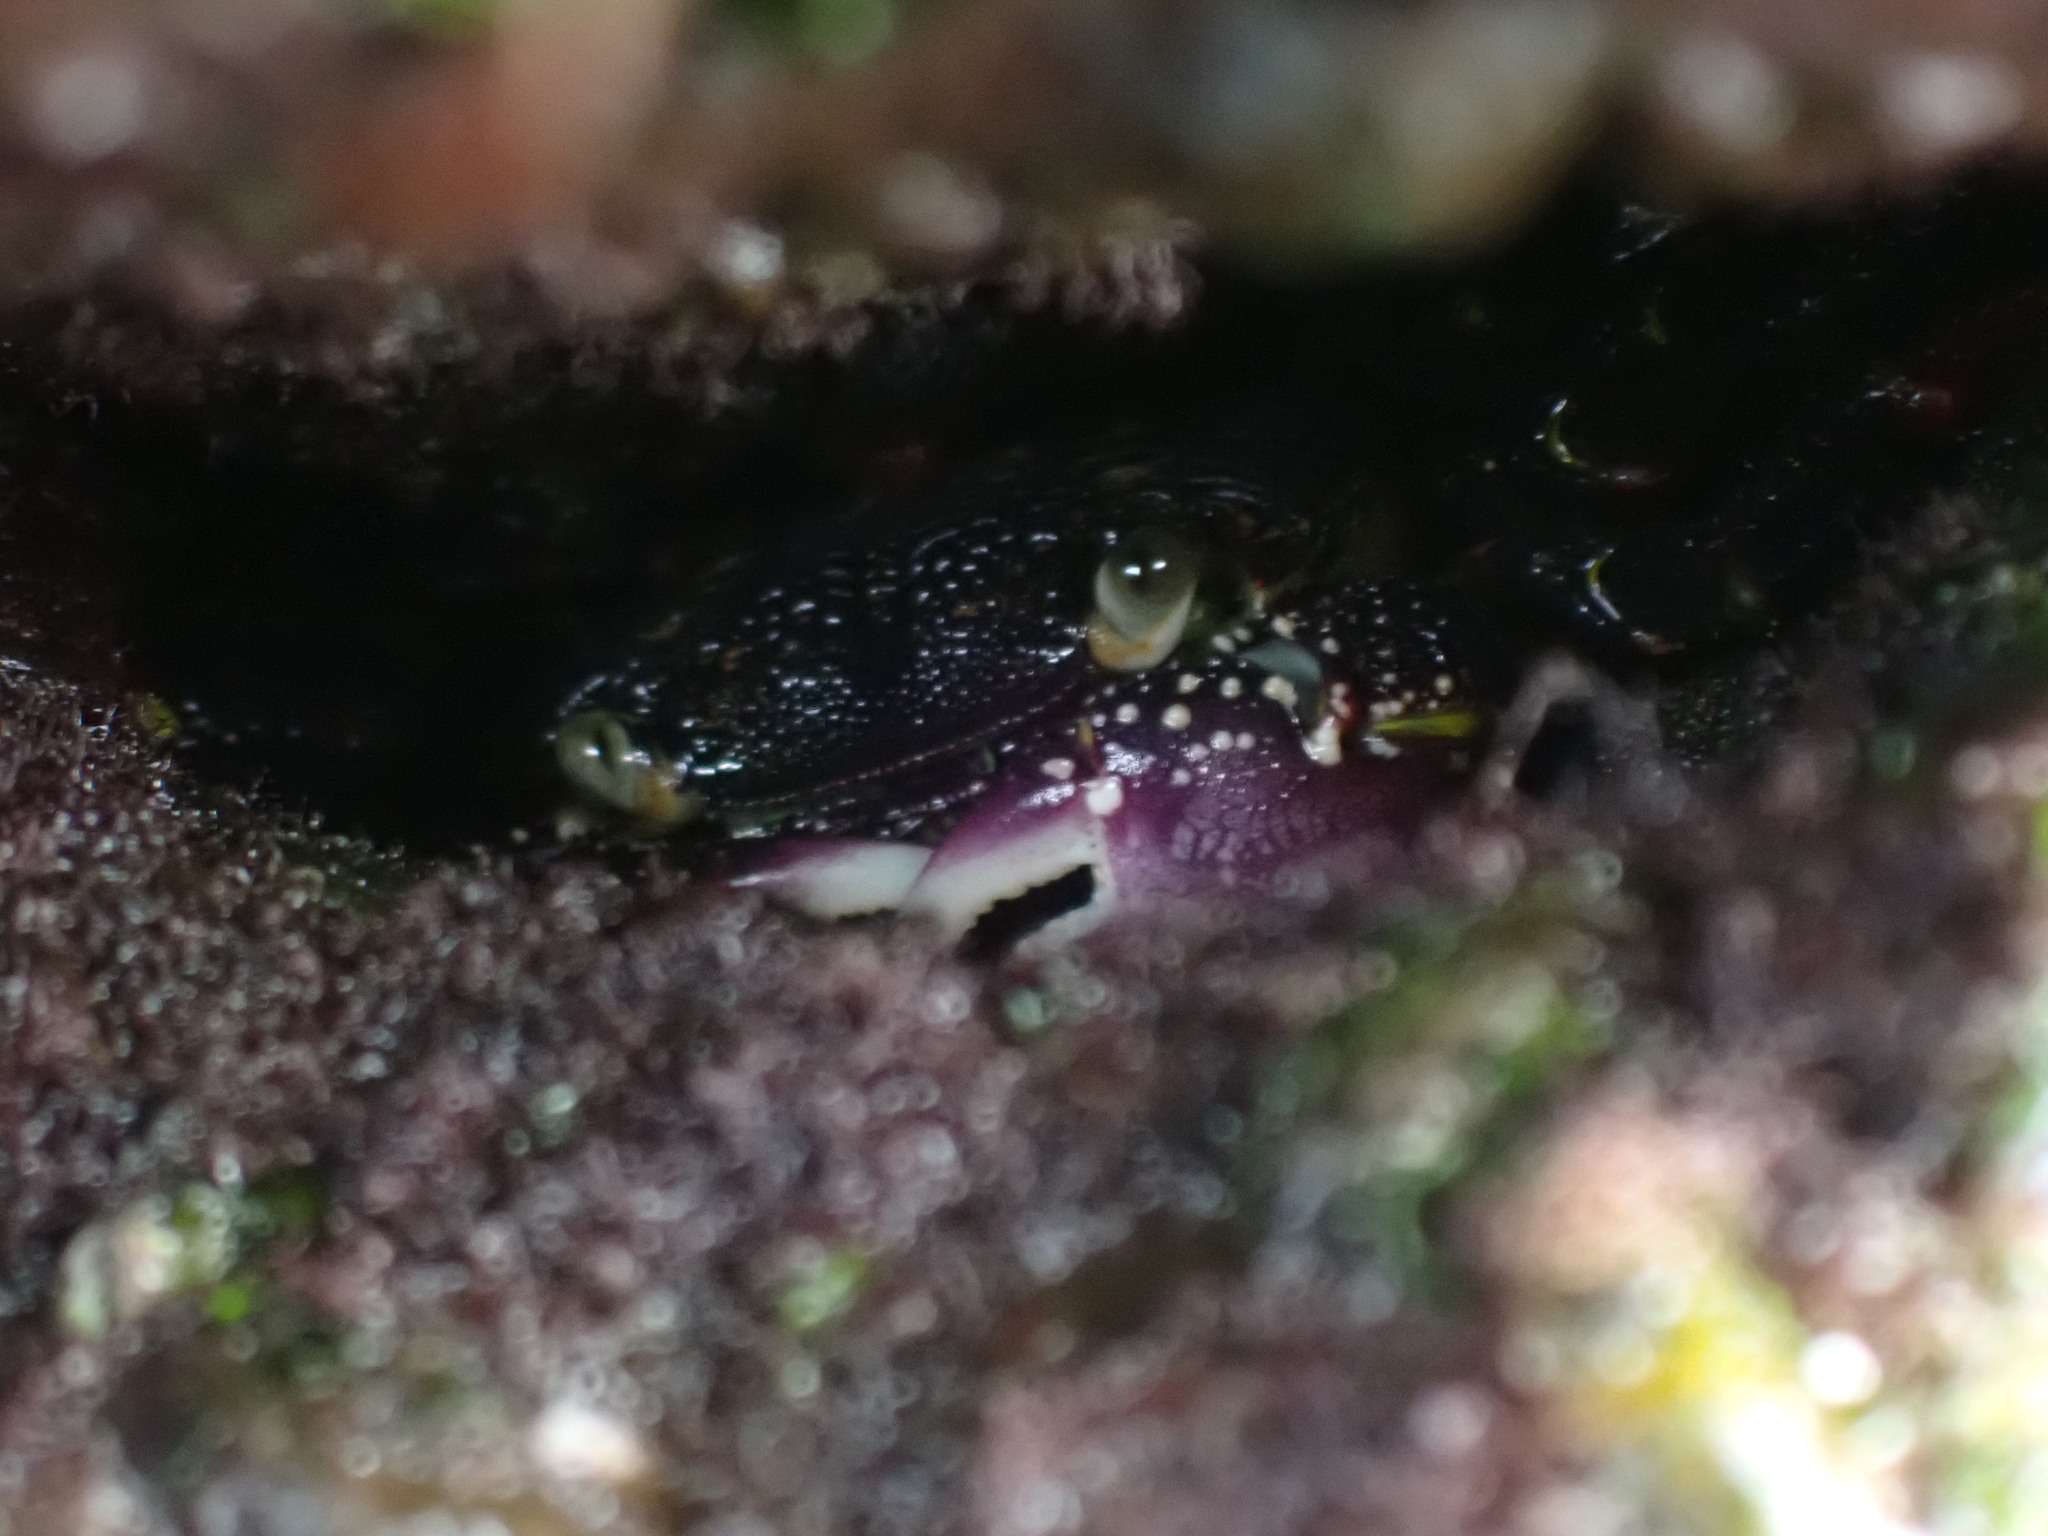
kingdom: Animalia
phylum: Arthropoda
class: Malacostraca
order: Decapoda
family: Grapsidae
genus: Leptograpsus
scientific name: Leptograpsus variegatus
